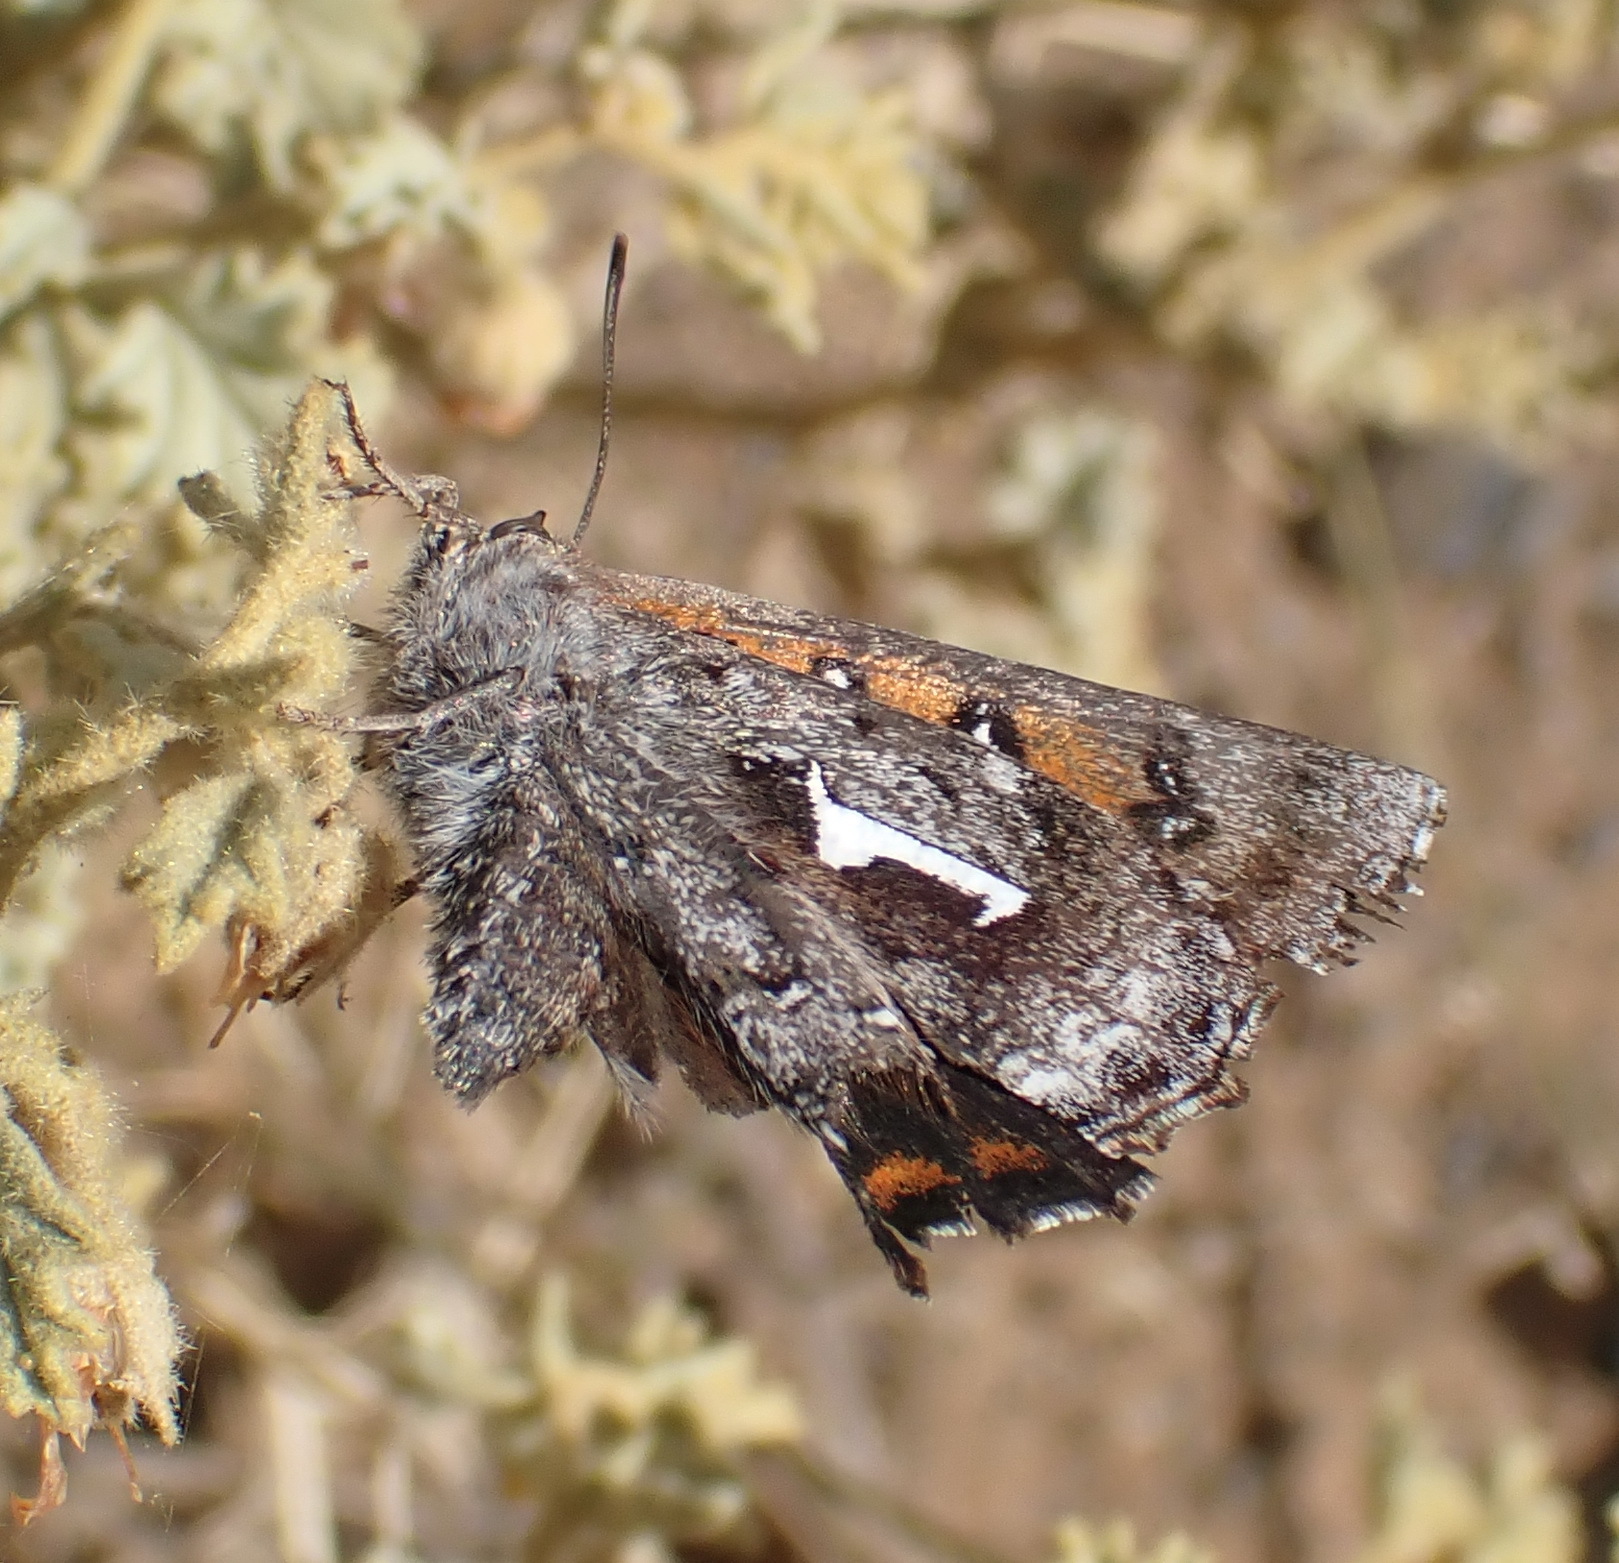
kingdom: Animalia
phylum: Arthropoda
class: Insecta
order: Lepidoptera
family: Lycaenidae
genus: Phasis
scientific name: Phasis braueri
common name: Brauer's arrowhead
